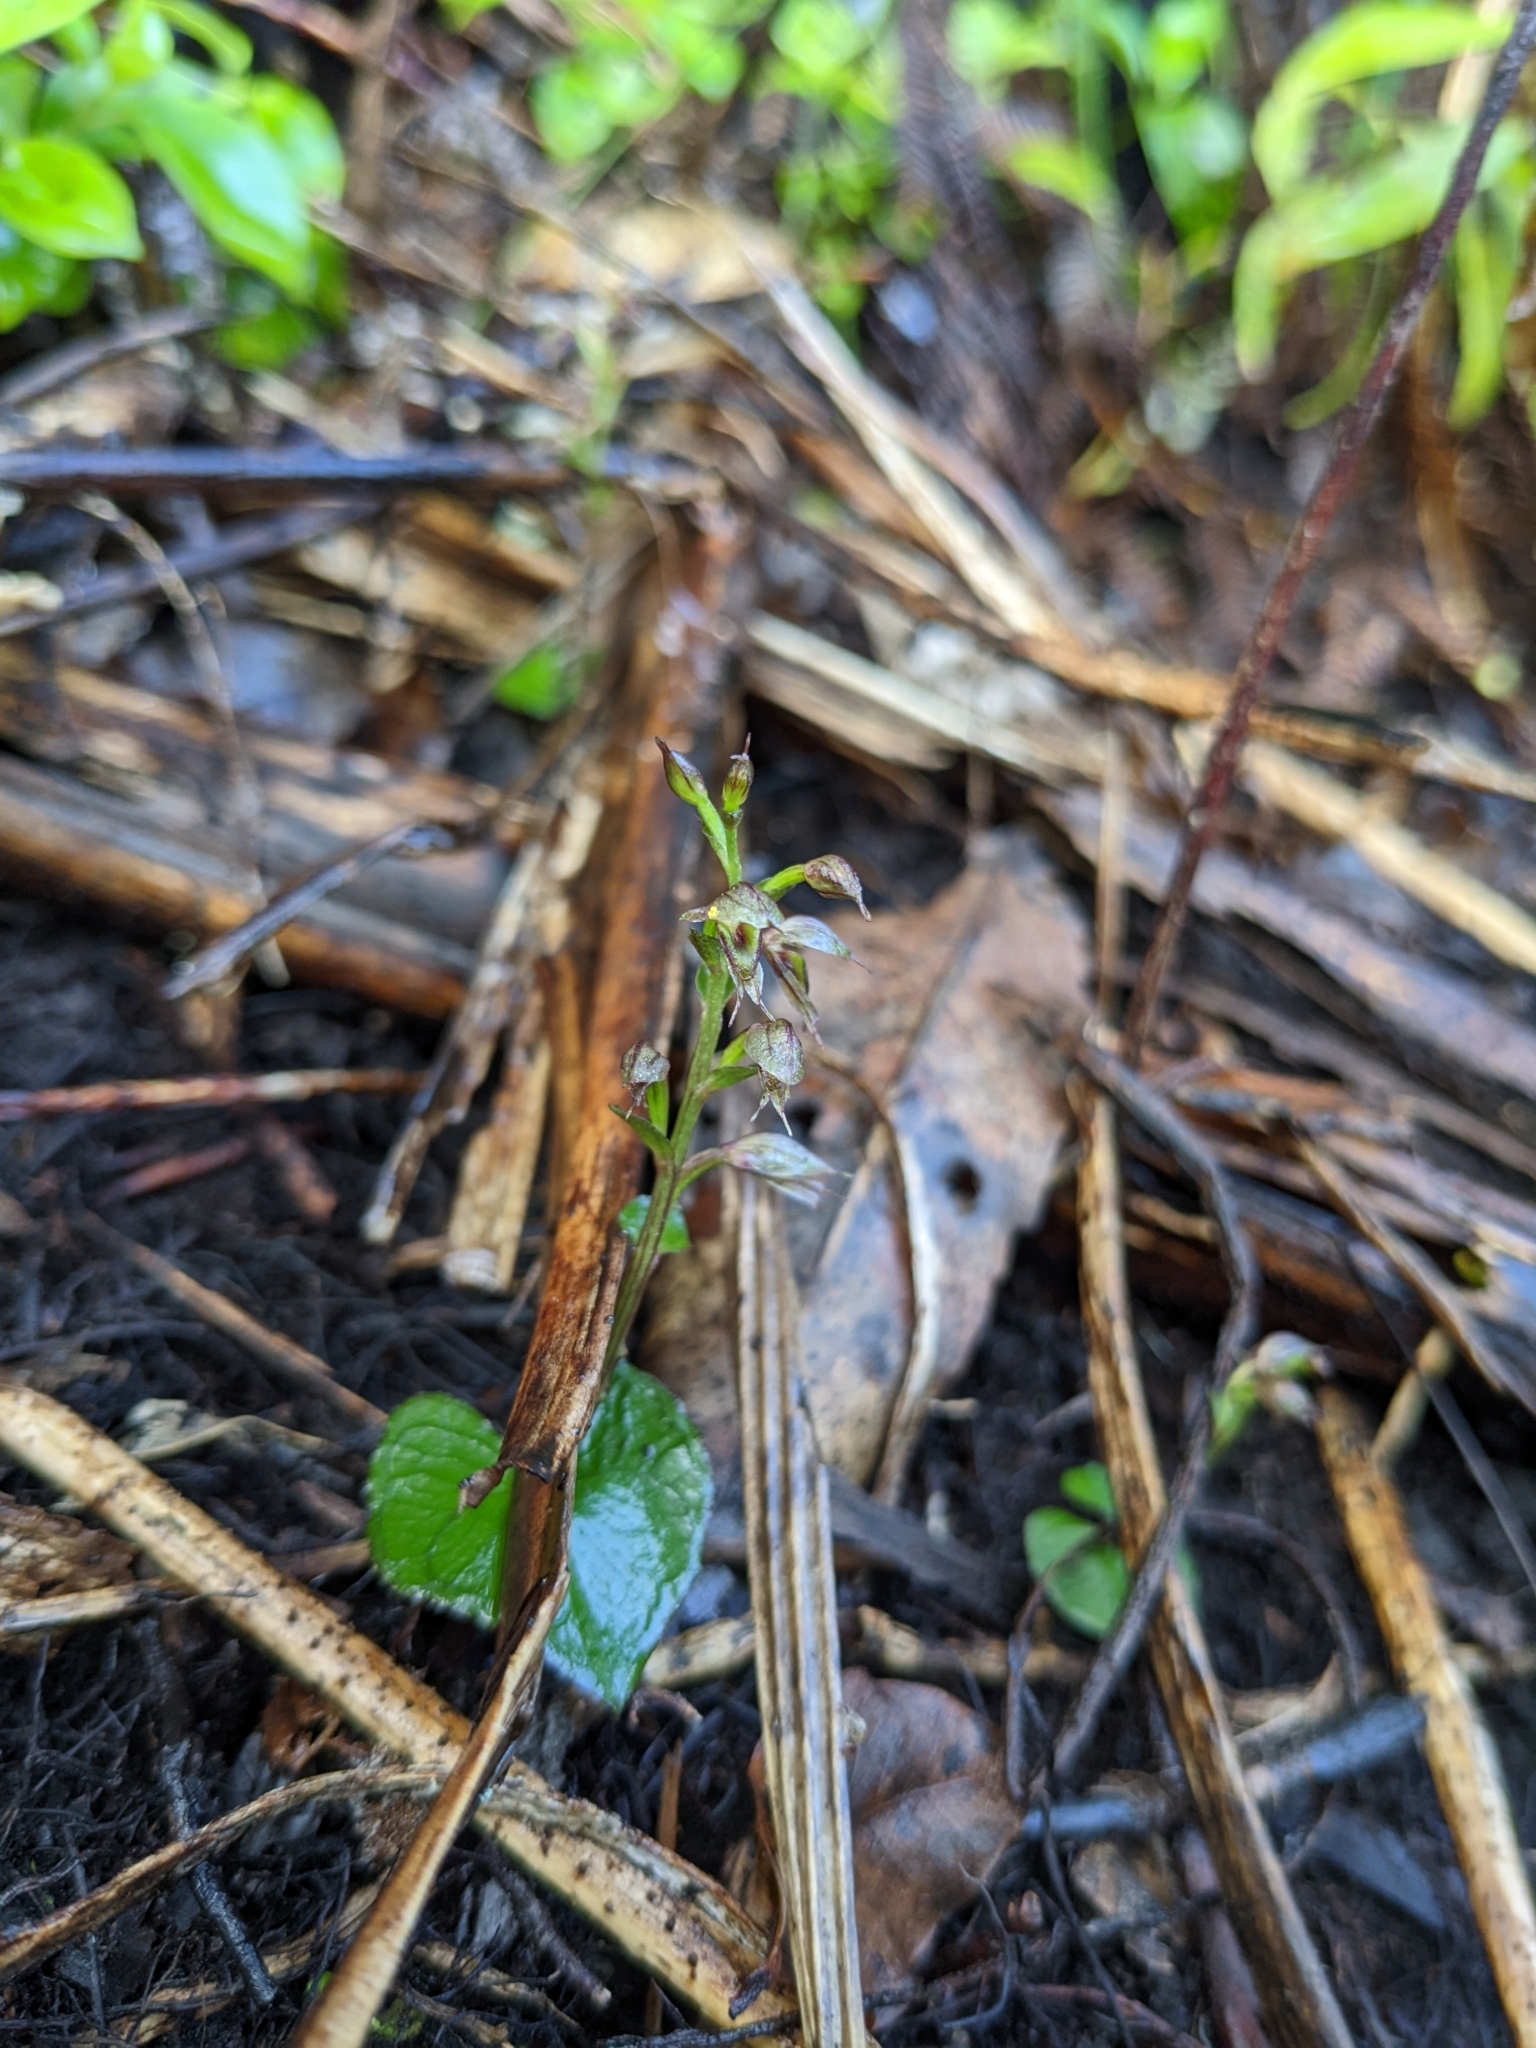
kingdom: Plantae
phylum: Tracheophyta
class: Liliopsida
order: Asparagales
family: Orchidaceae
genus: Acianthus
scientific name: Acianthus sinclairii
